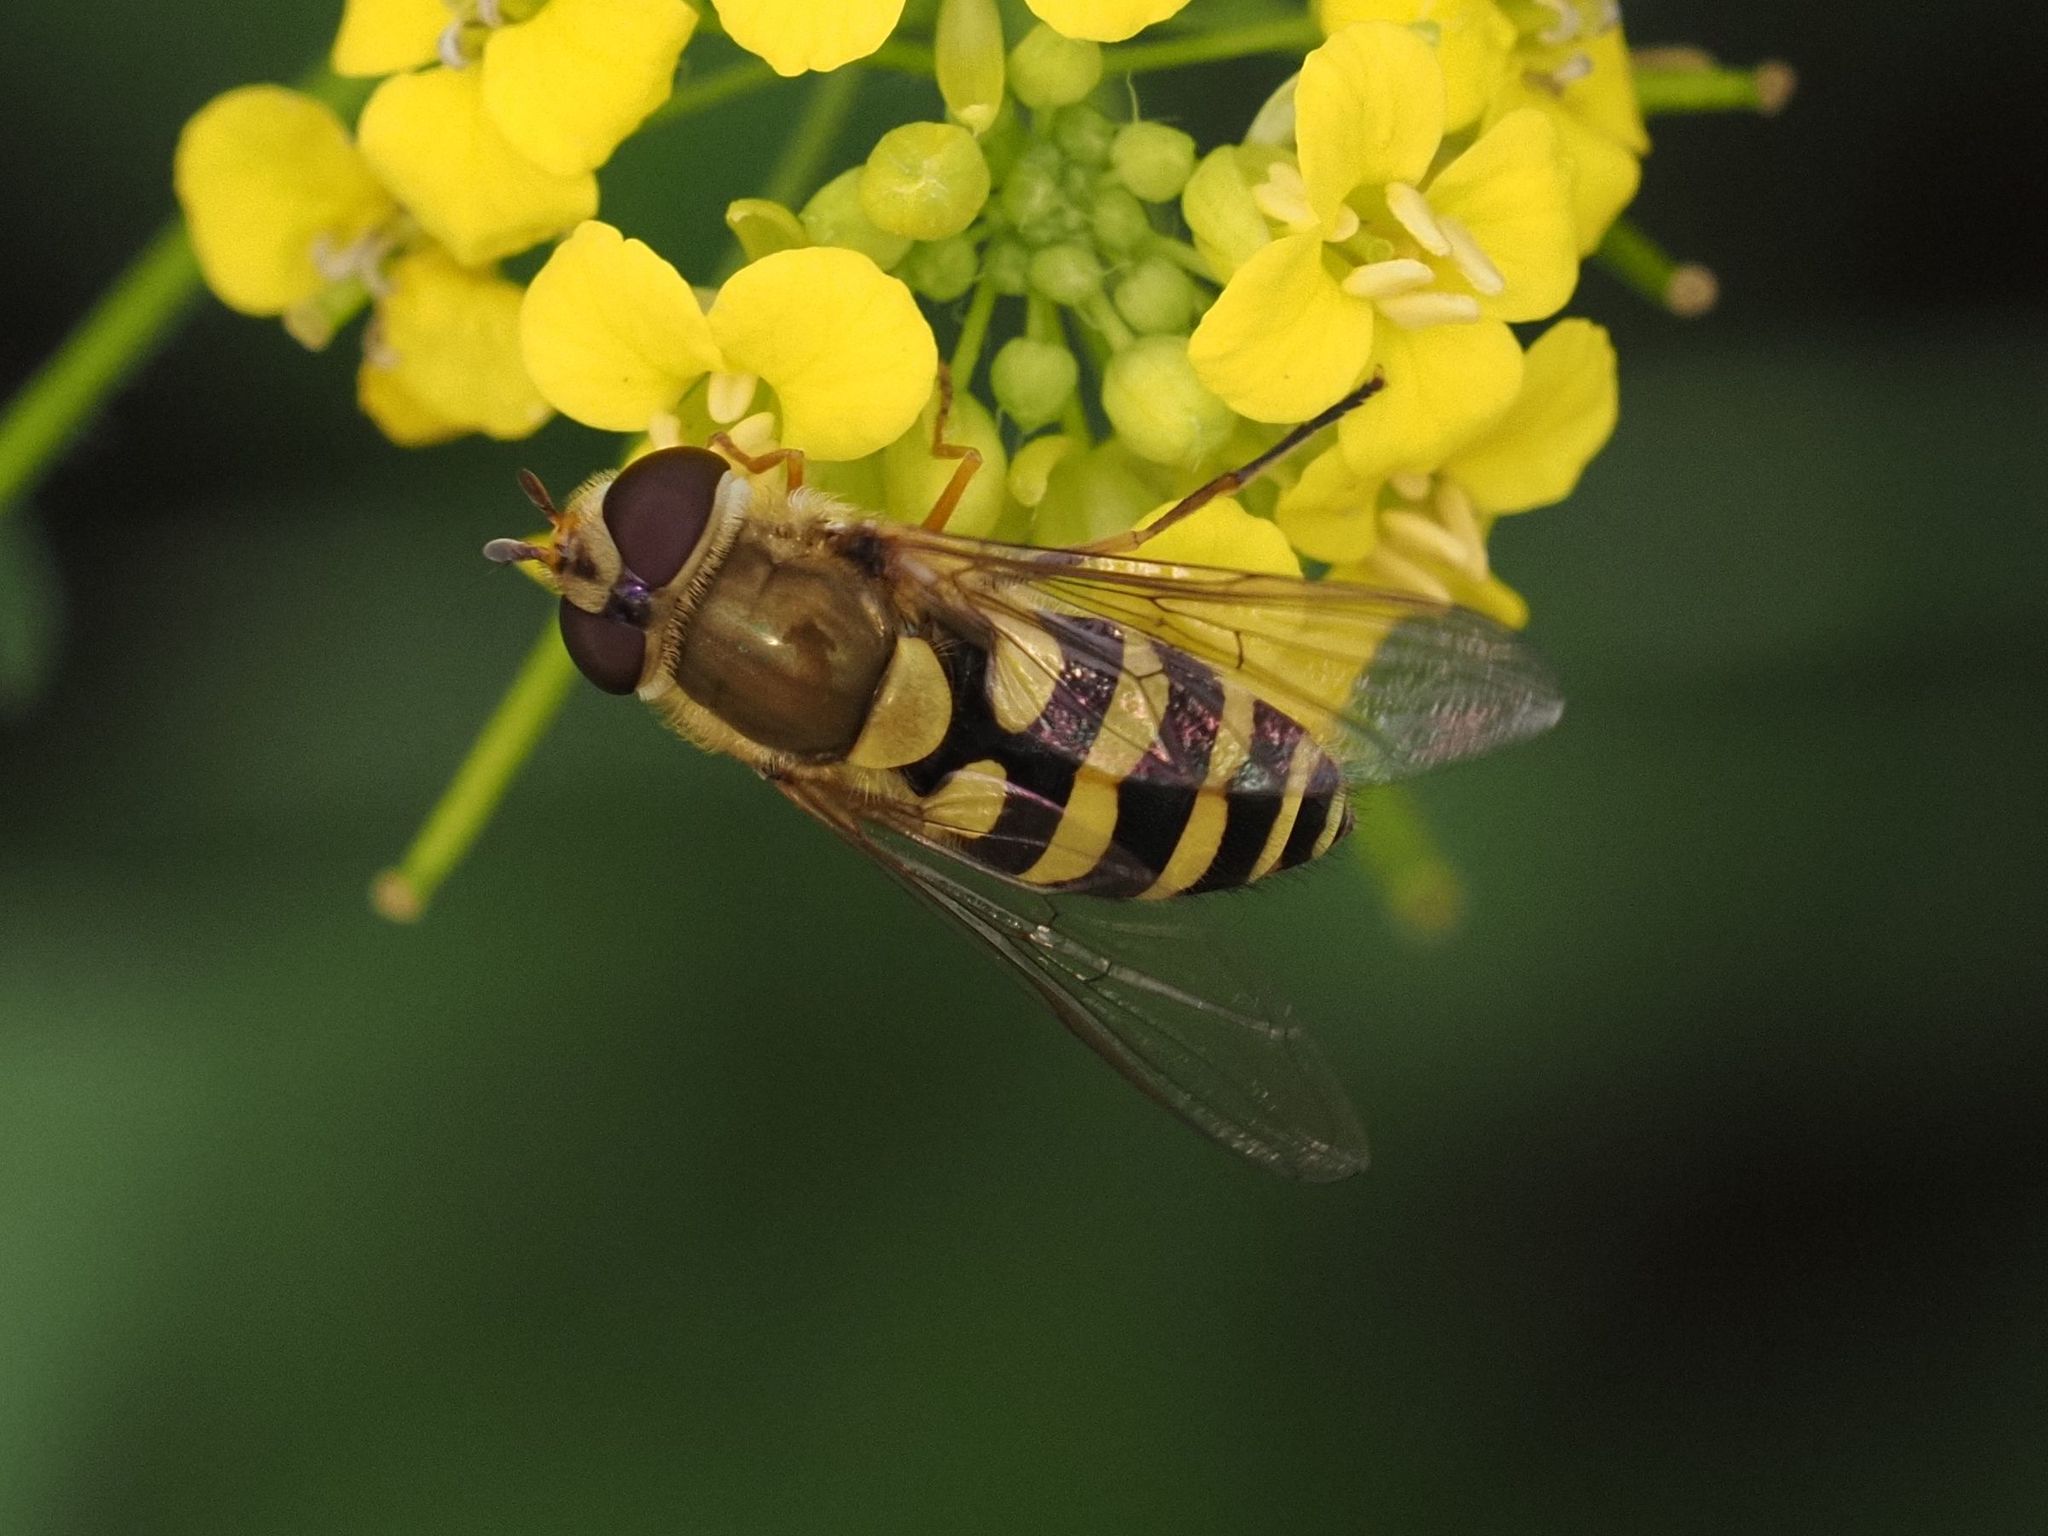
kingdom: Animalia
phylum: Arthropoda
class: Insecta
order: Diptera
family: Syrphidae
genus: Syrphus
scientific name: Syrphus
